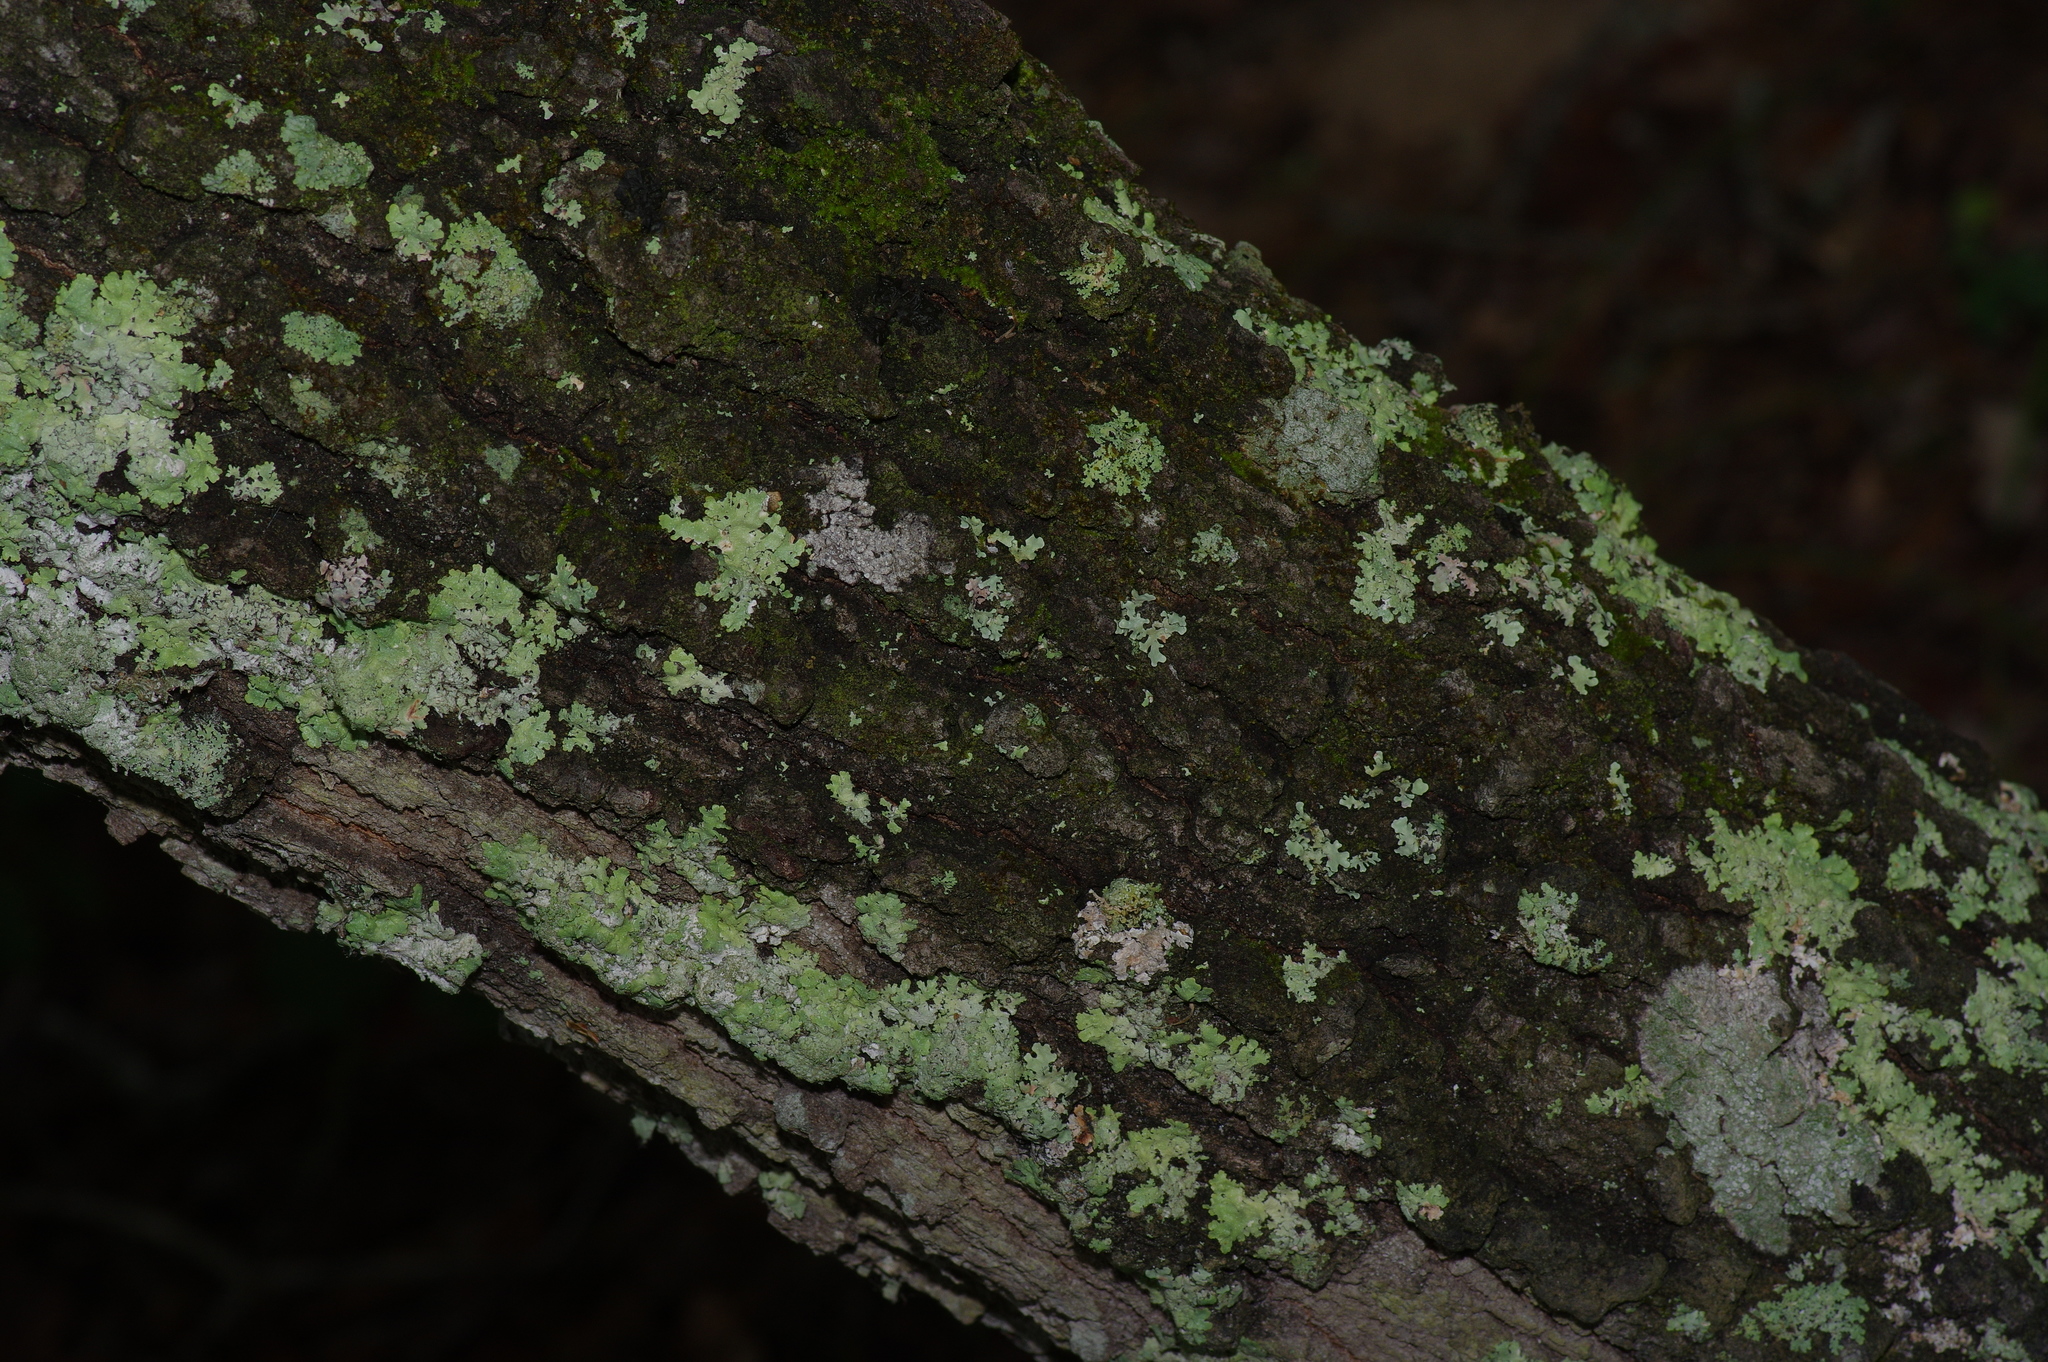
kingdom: Plantae
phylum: Tracheophyta
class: Magnoliopsida
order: Fagales
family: Fagaceae
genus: Quercus
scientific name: Quercus incana
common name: Bluejack oak
